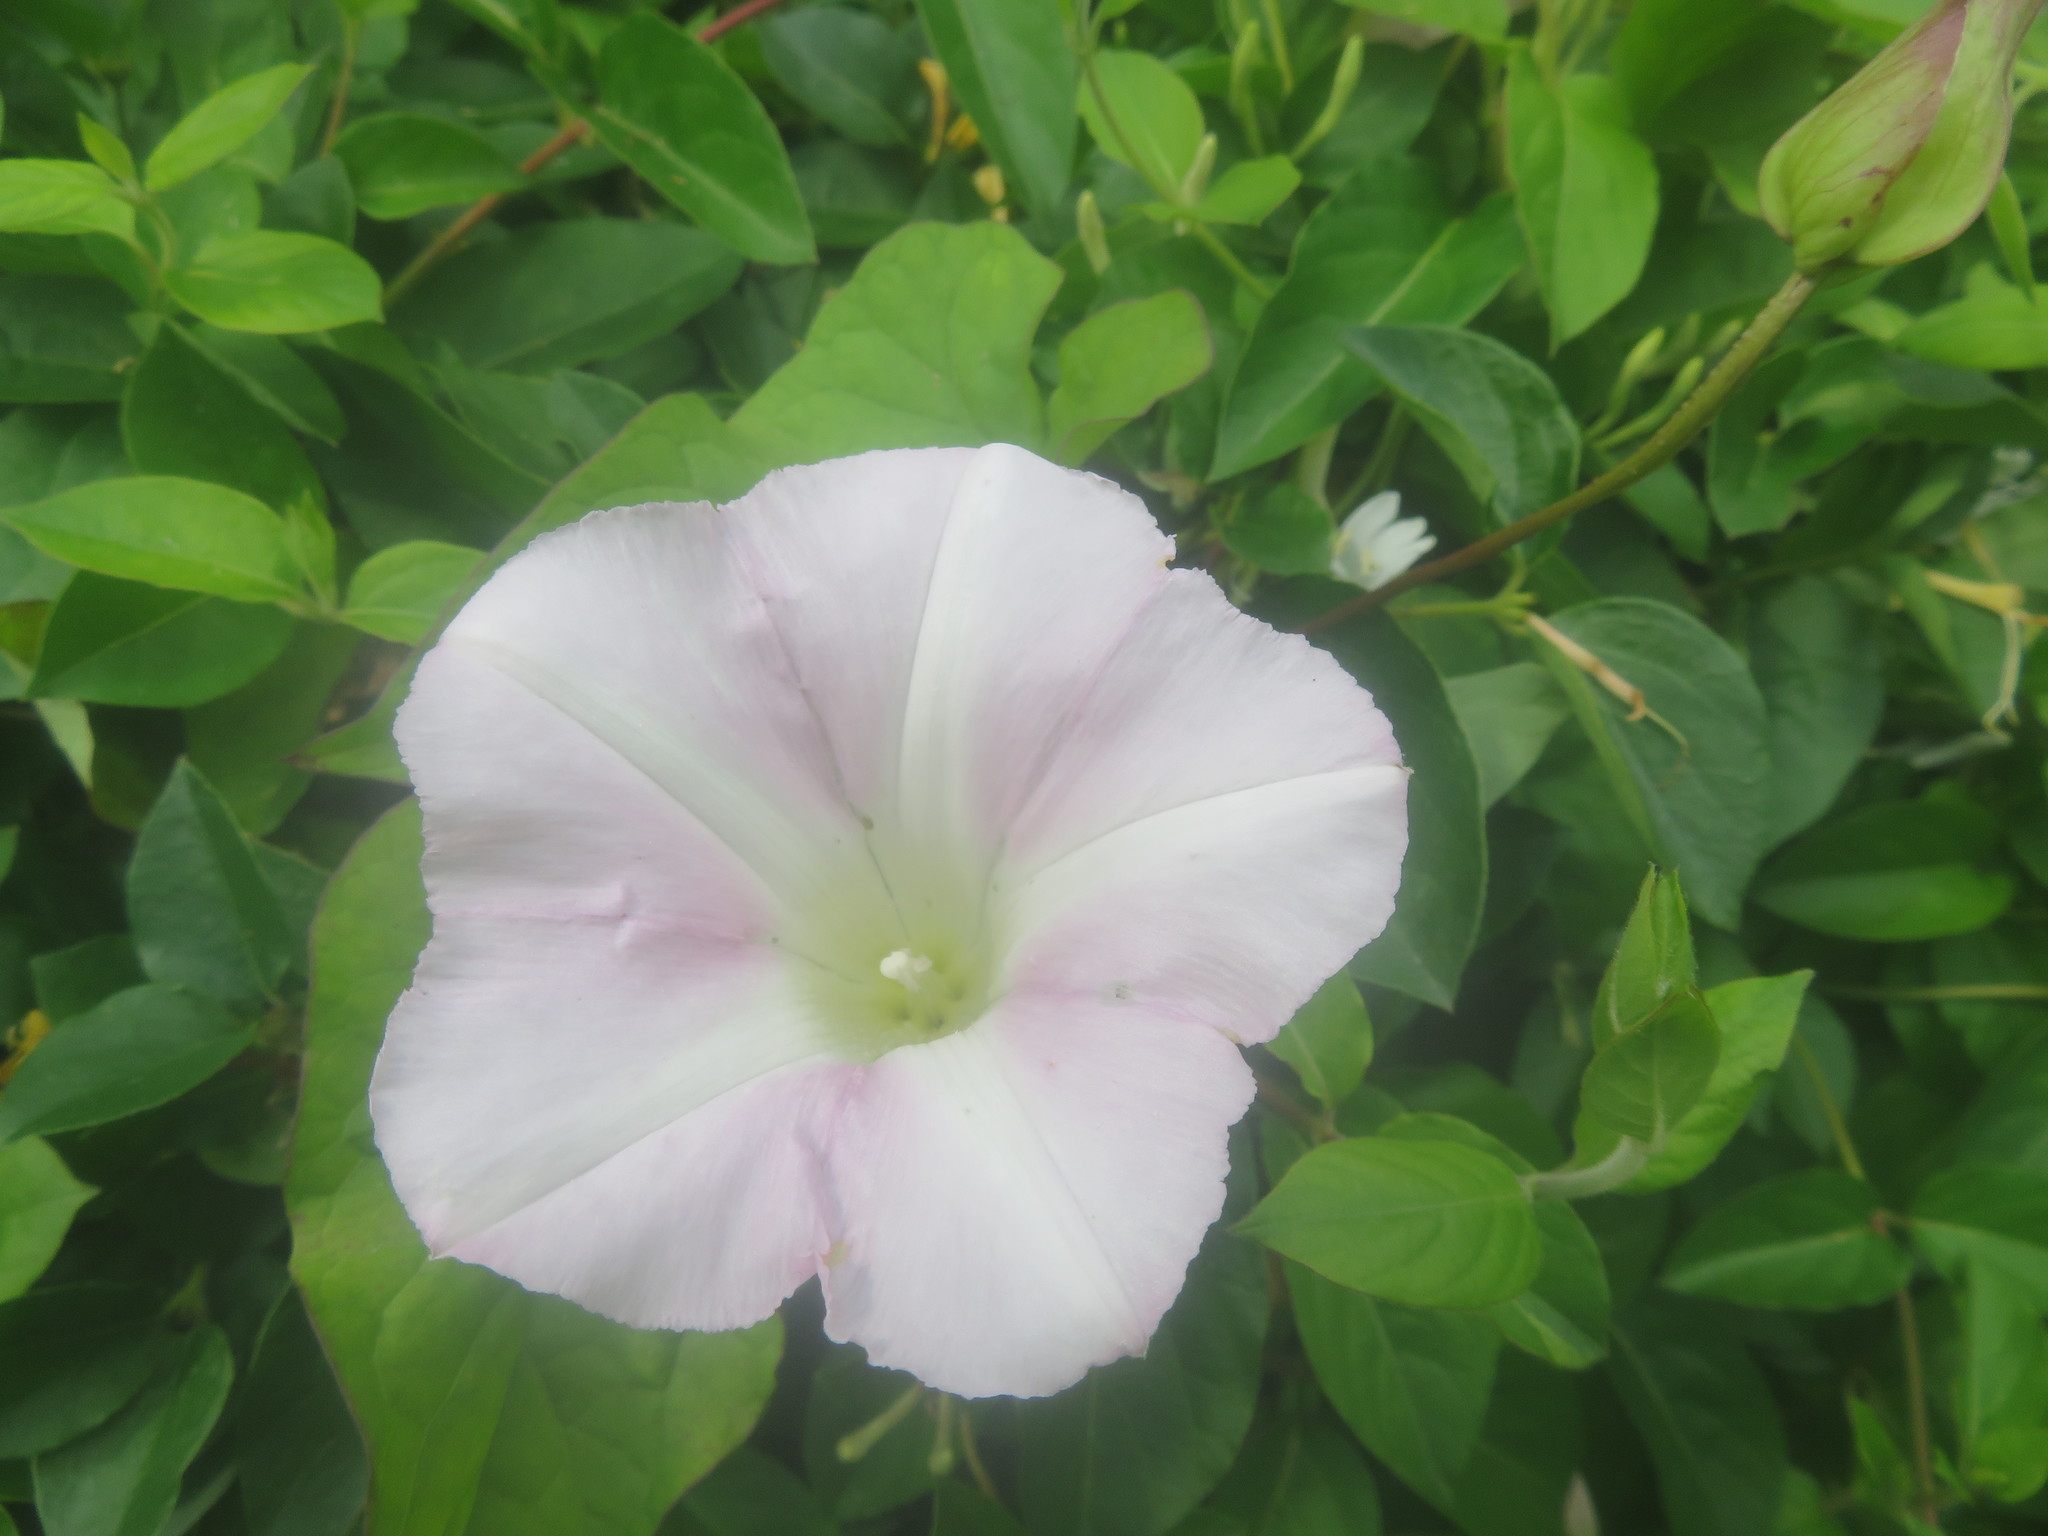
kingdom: Plantae
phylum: Tracheophyta
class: Magnoliopsida
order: Solanales
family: Convolvulaceae
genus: Calystegia
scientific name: Calystegia
